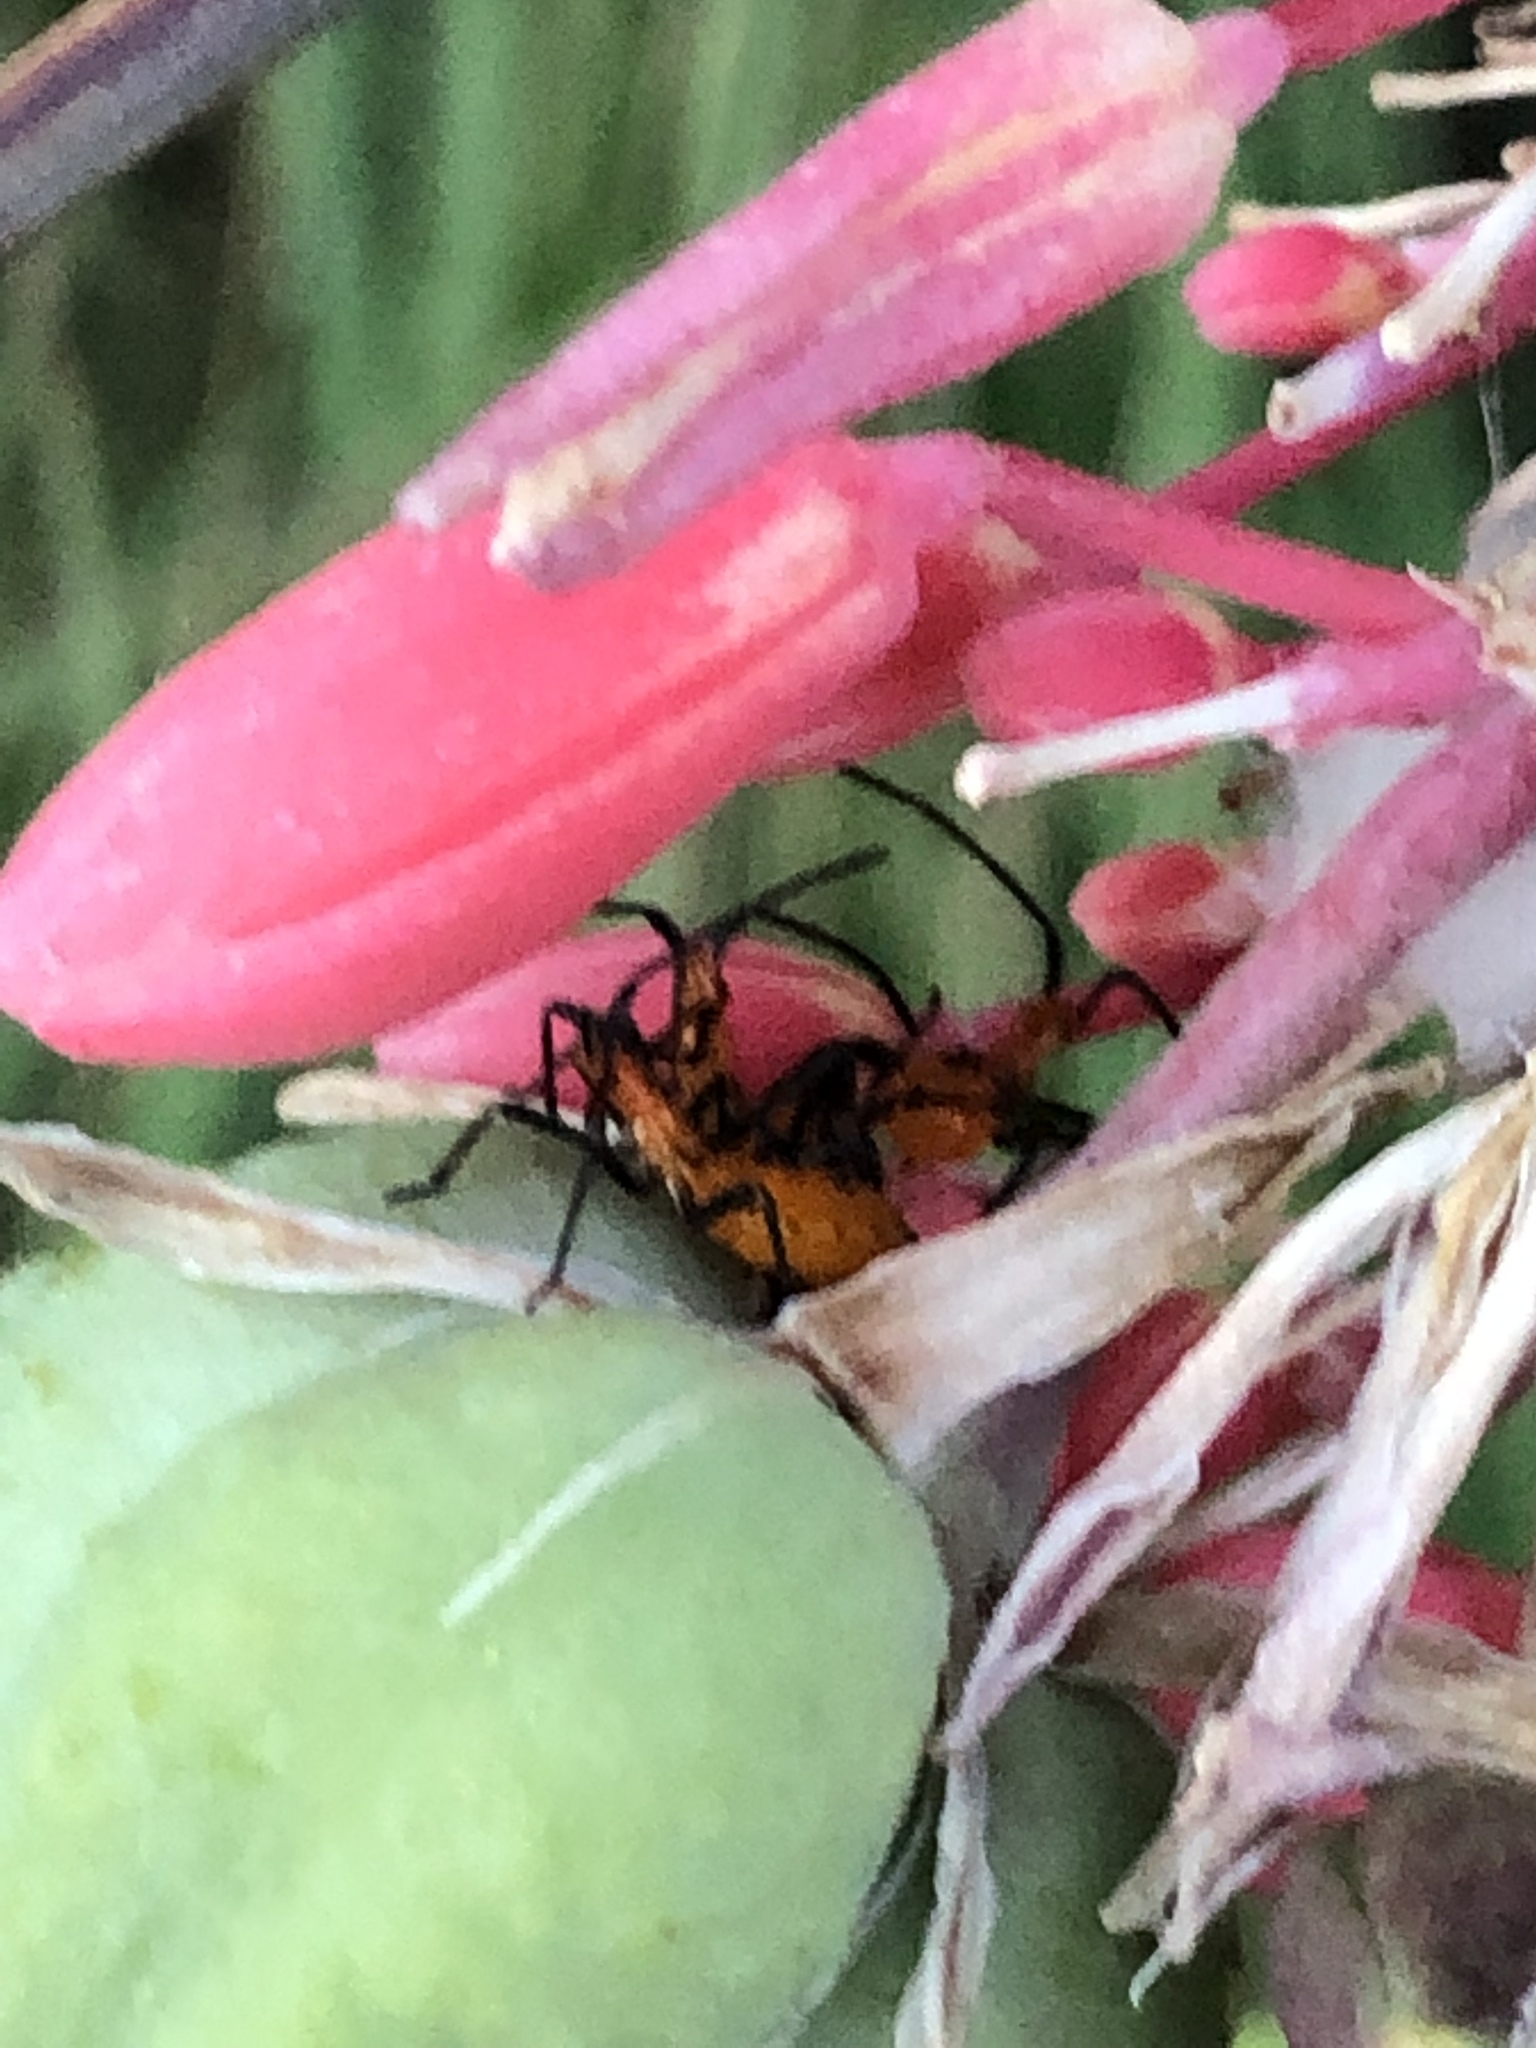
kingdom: Animalia
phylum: Arthropoda
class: Insecta
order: Hemiptera
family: Coreidae
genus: Leptoglossus
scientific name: Leptoglossus phyllopus
